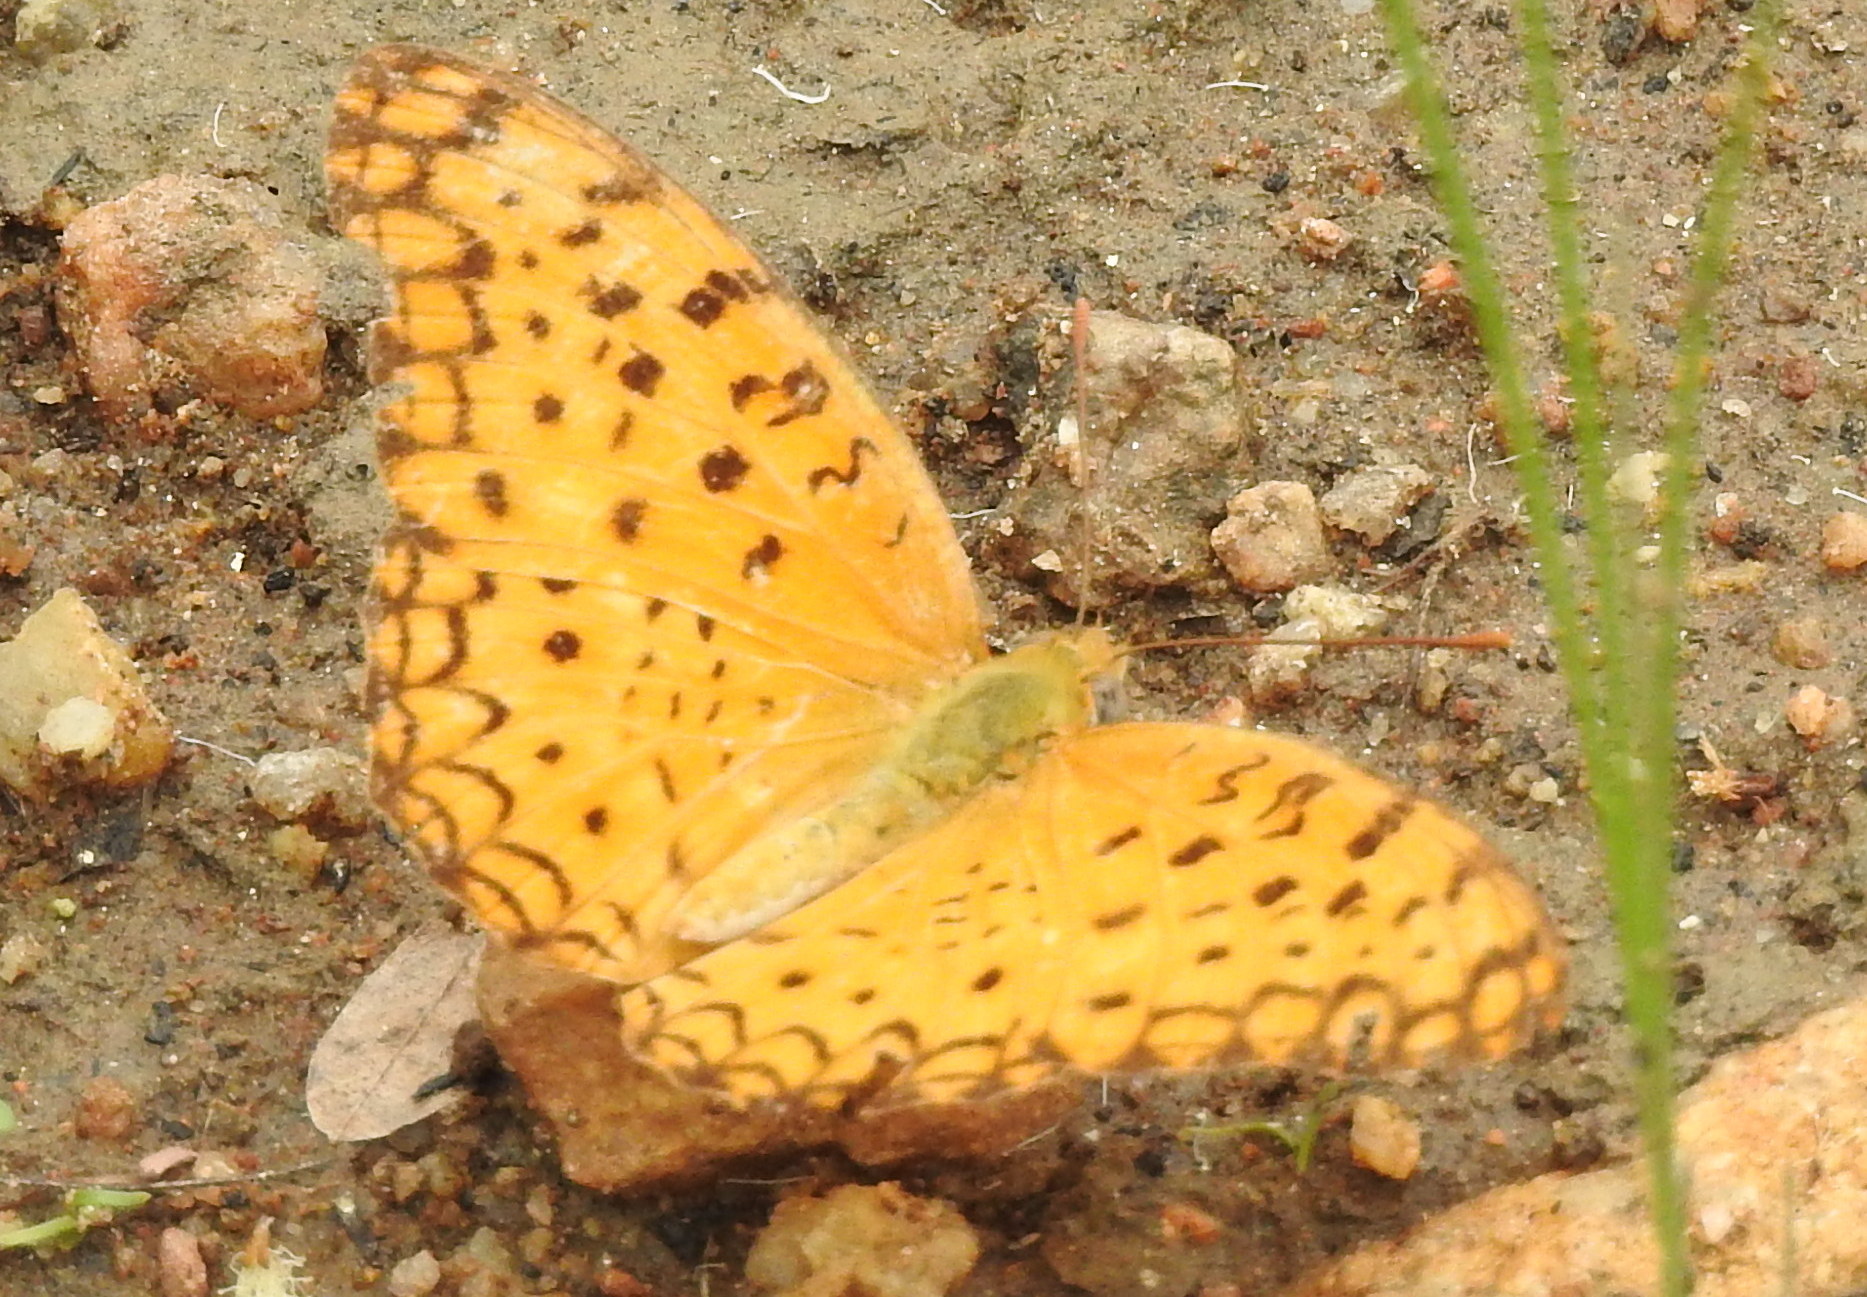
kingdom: Animalia
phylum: Arthropoda
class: Insecta
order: Lepidoptera
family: Nymphalidae
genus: Phalanta
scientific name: Phalanta phalantha
